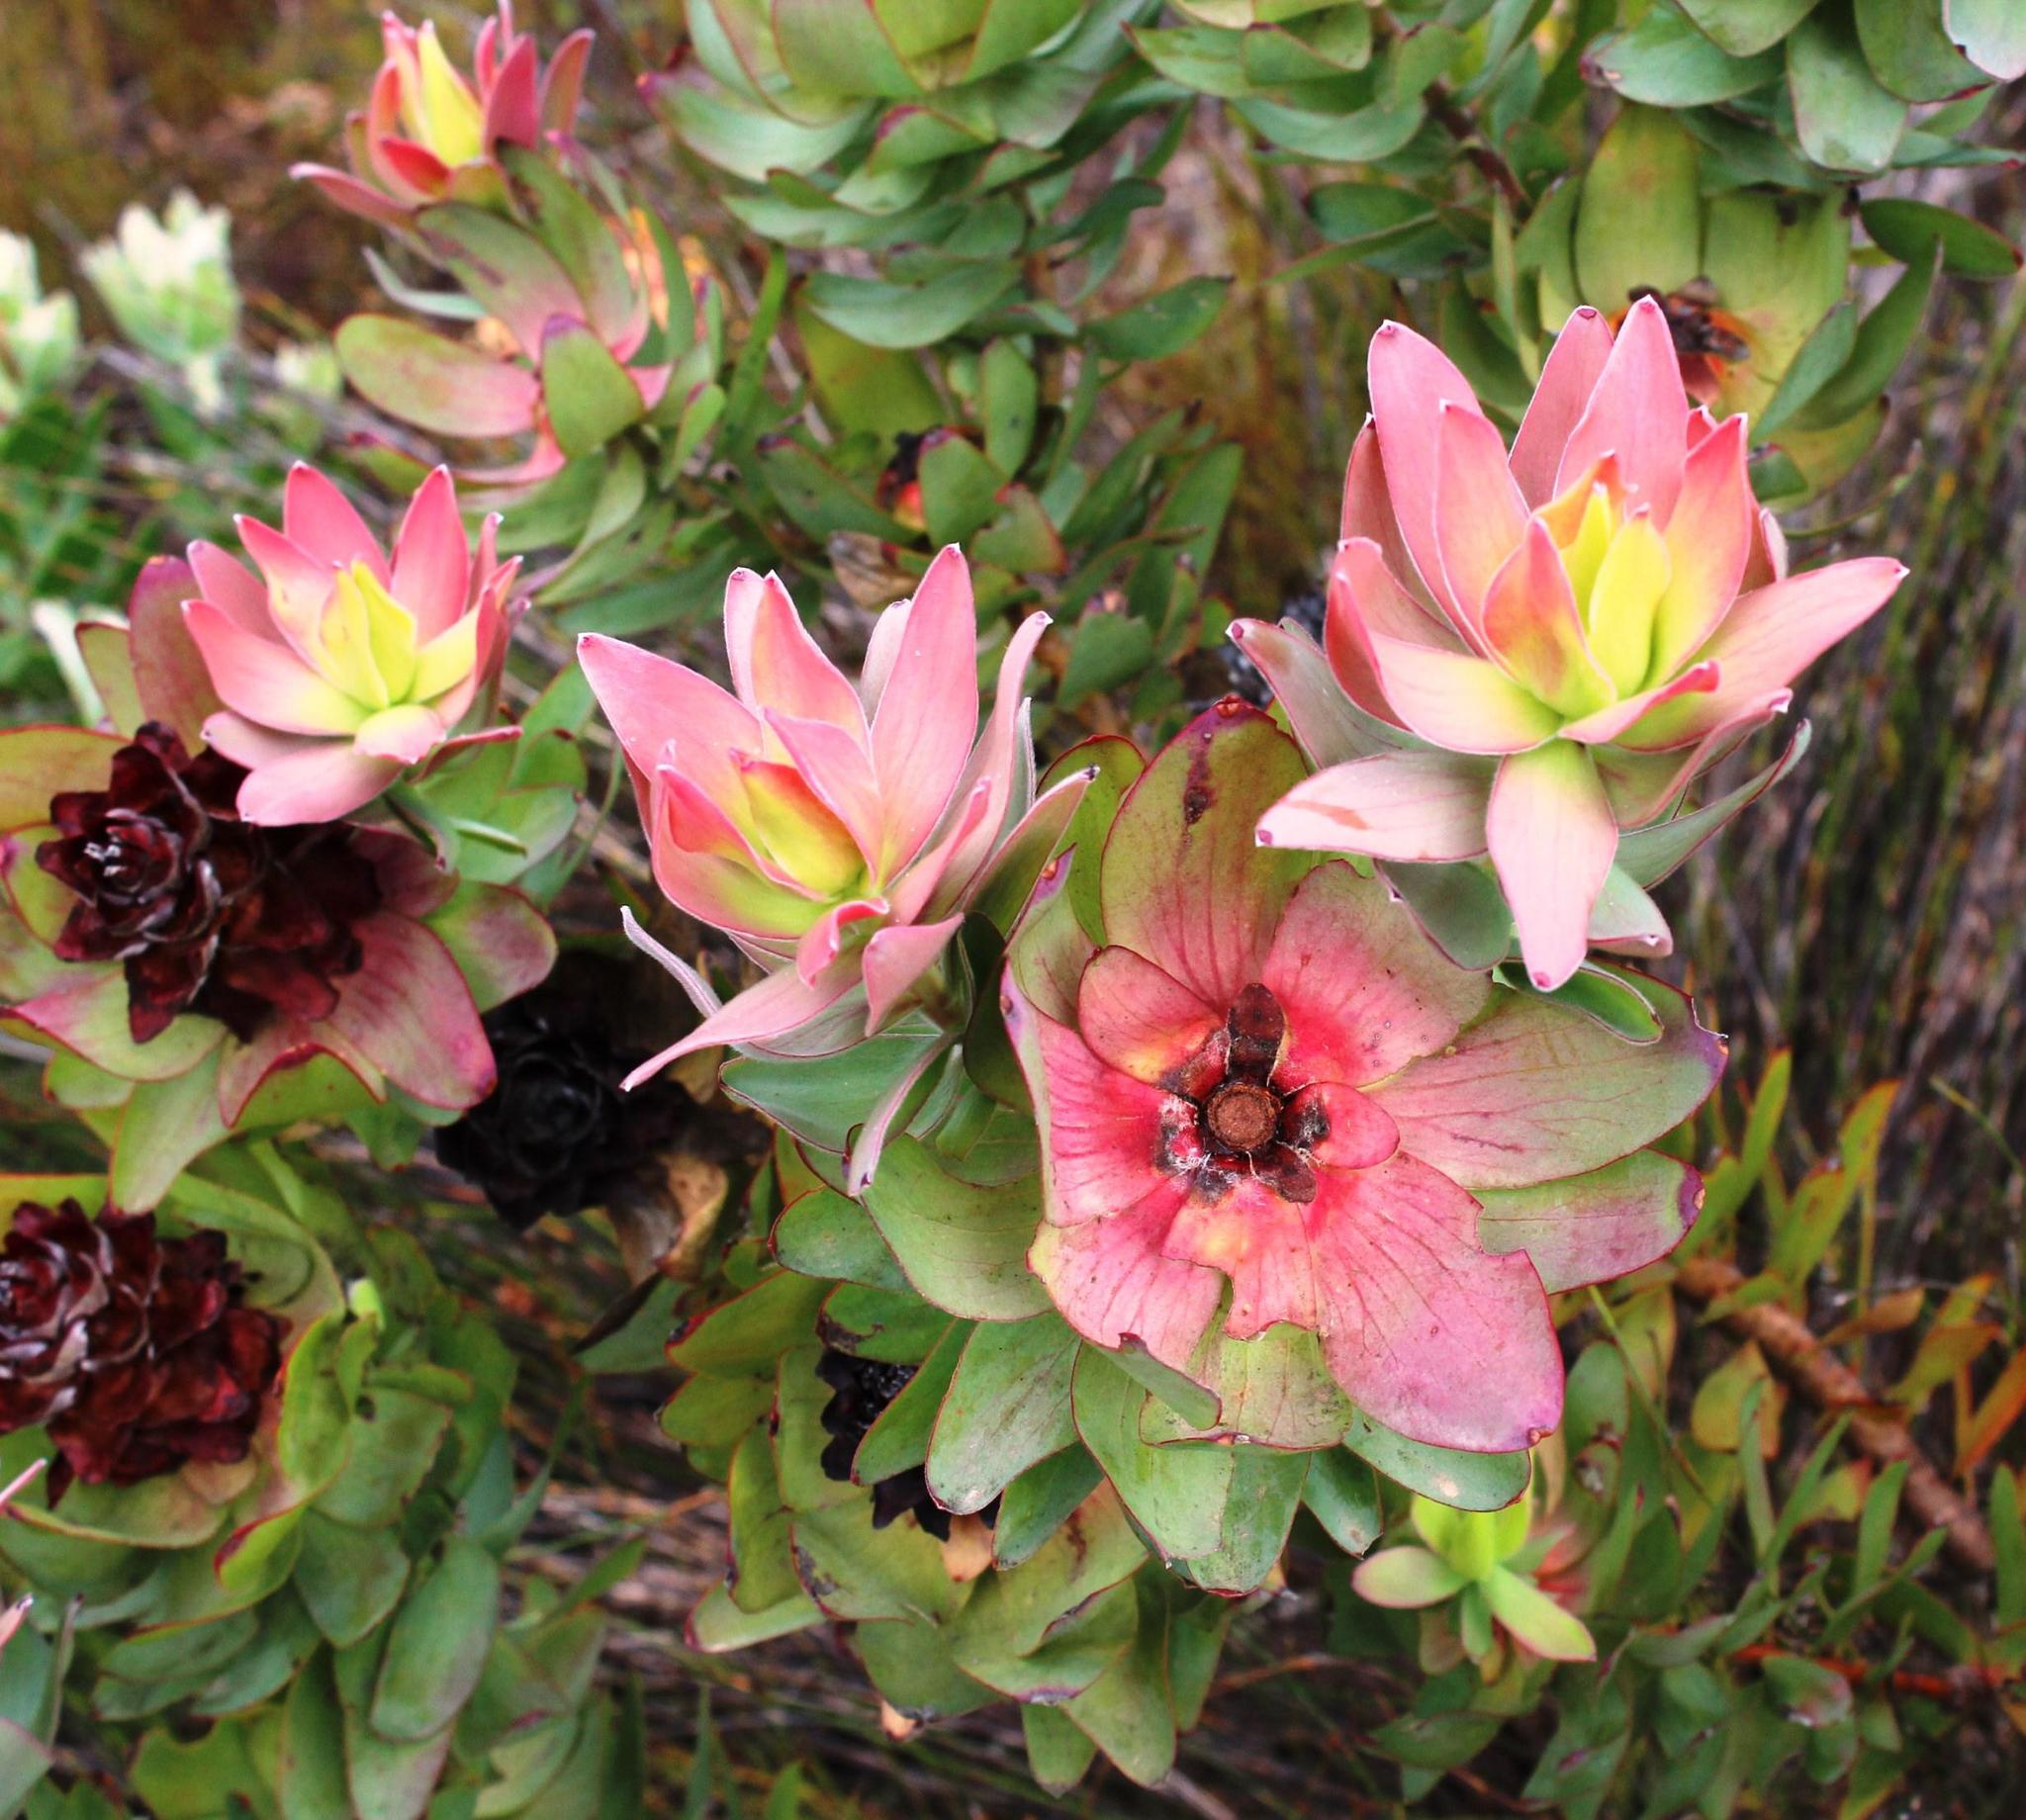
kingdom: Plantae
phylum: Tracheophyta
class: Magnoliopsida
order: Proteales
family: Proteaceae
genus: Leucadendron
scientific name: Leucadendron tinctum
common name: Spicy conebush
